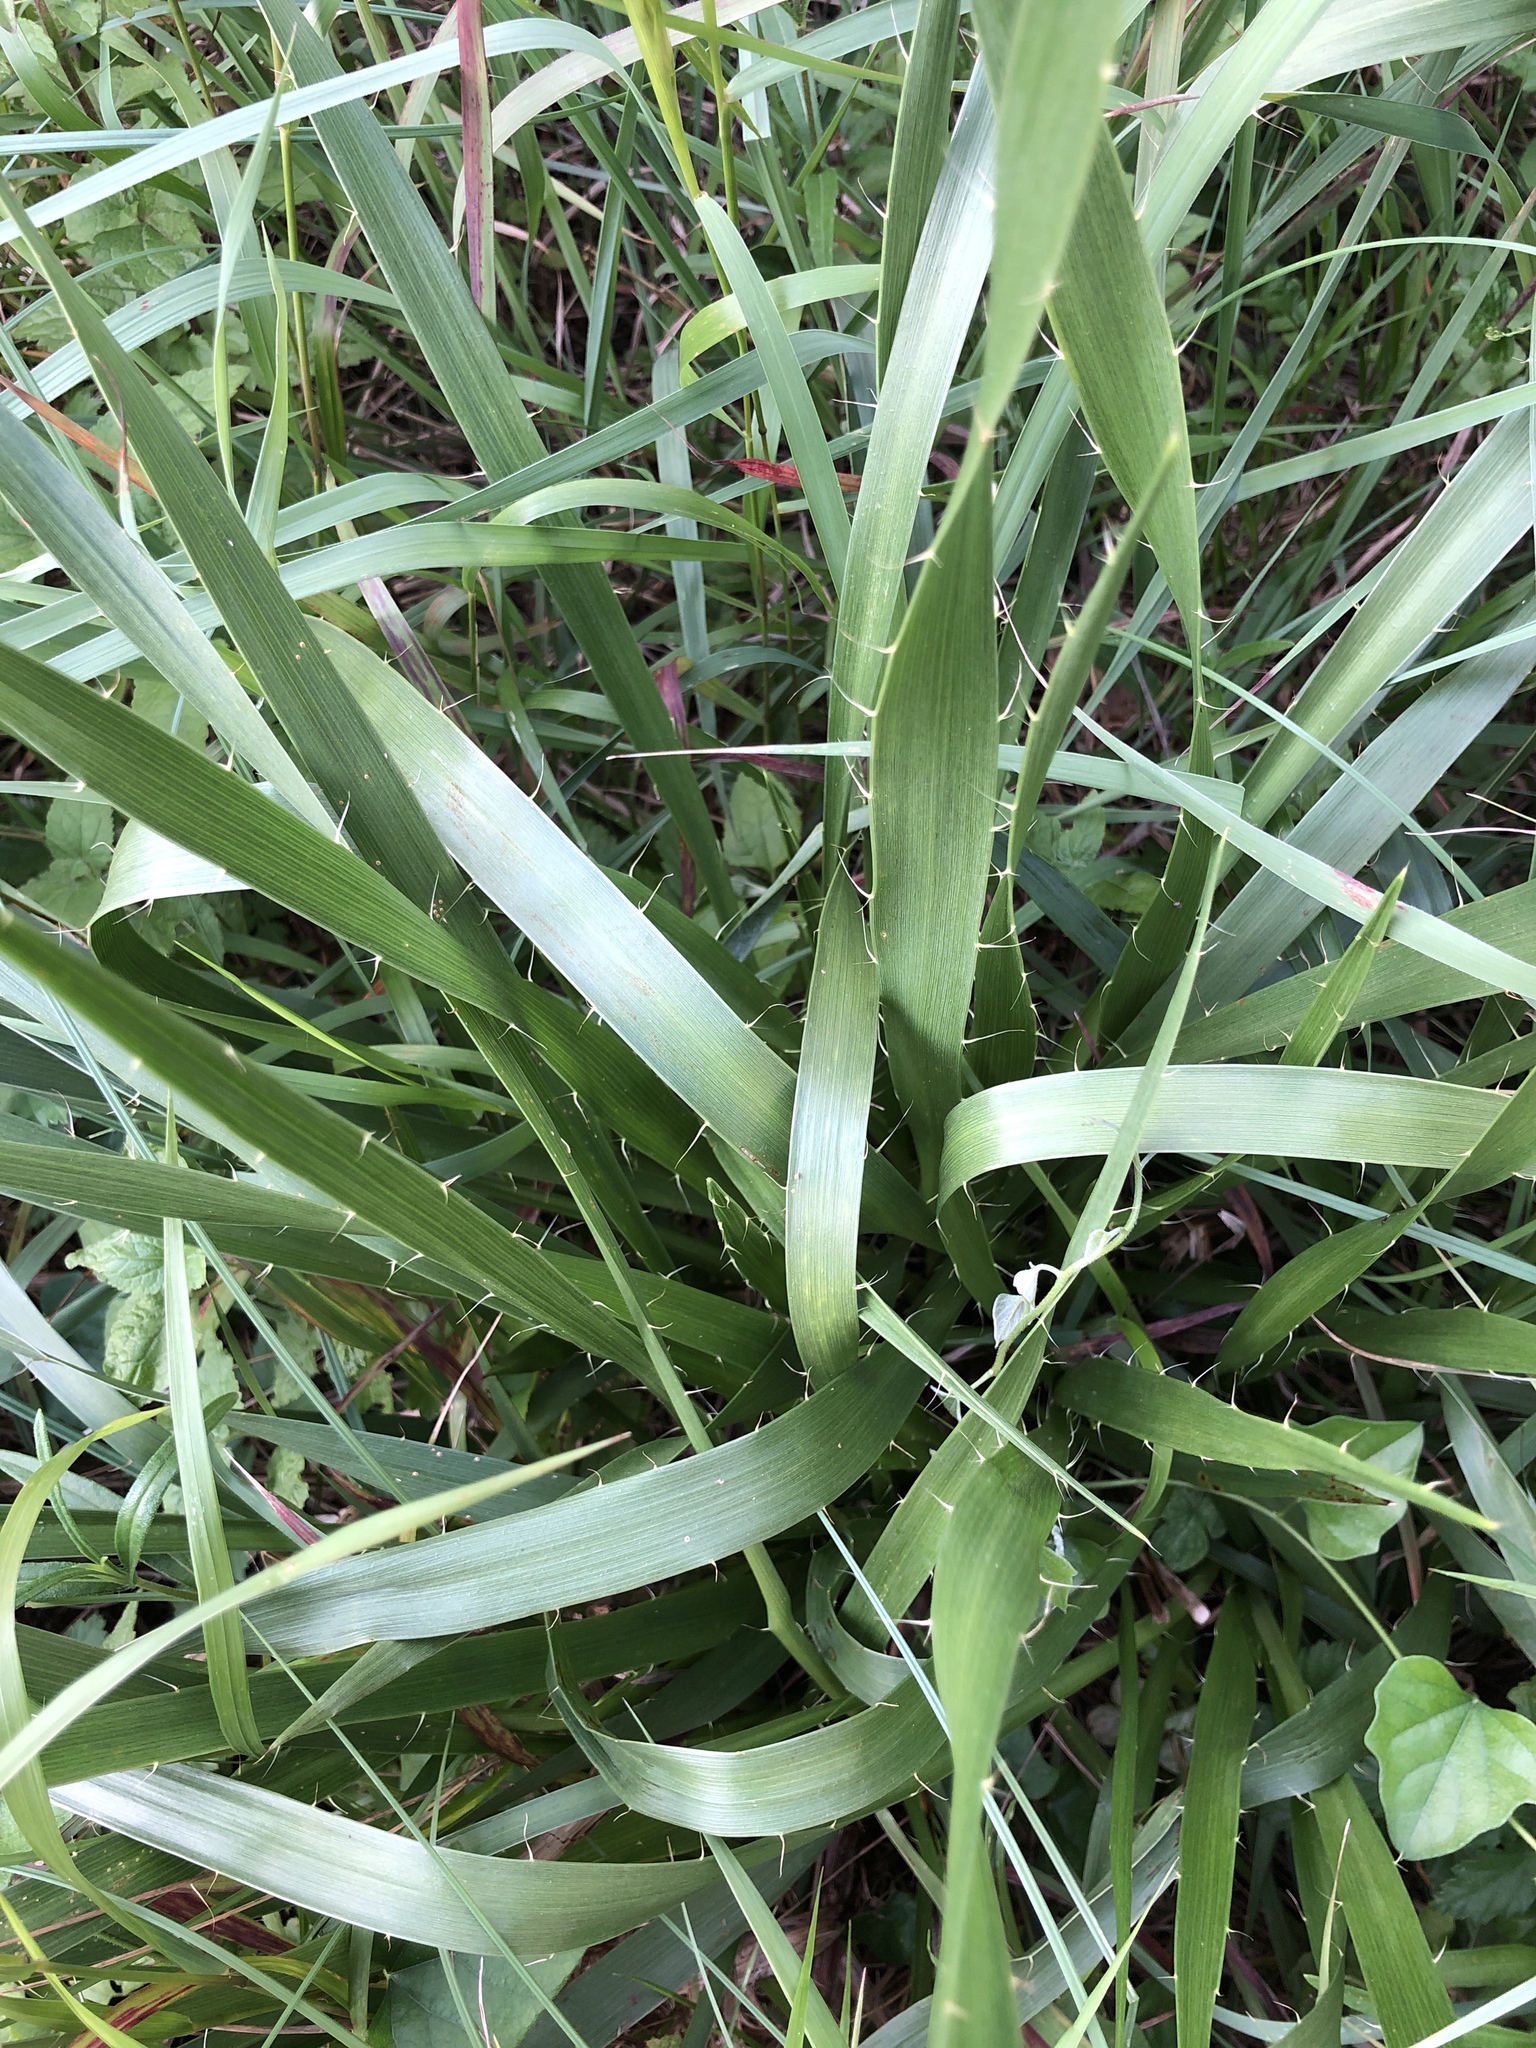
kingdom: Plantae
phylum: Tracheophyta
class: Magnoliopsida
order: Apiales
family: Apiaceae
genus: Eryngium
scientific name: Eryngium yuccifolium
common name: Button eryngo
